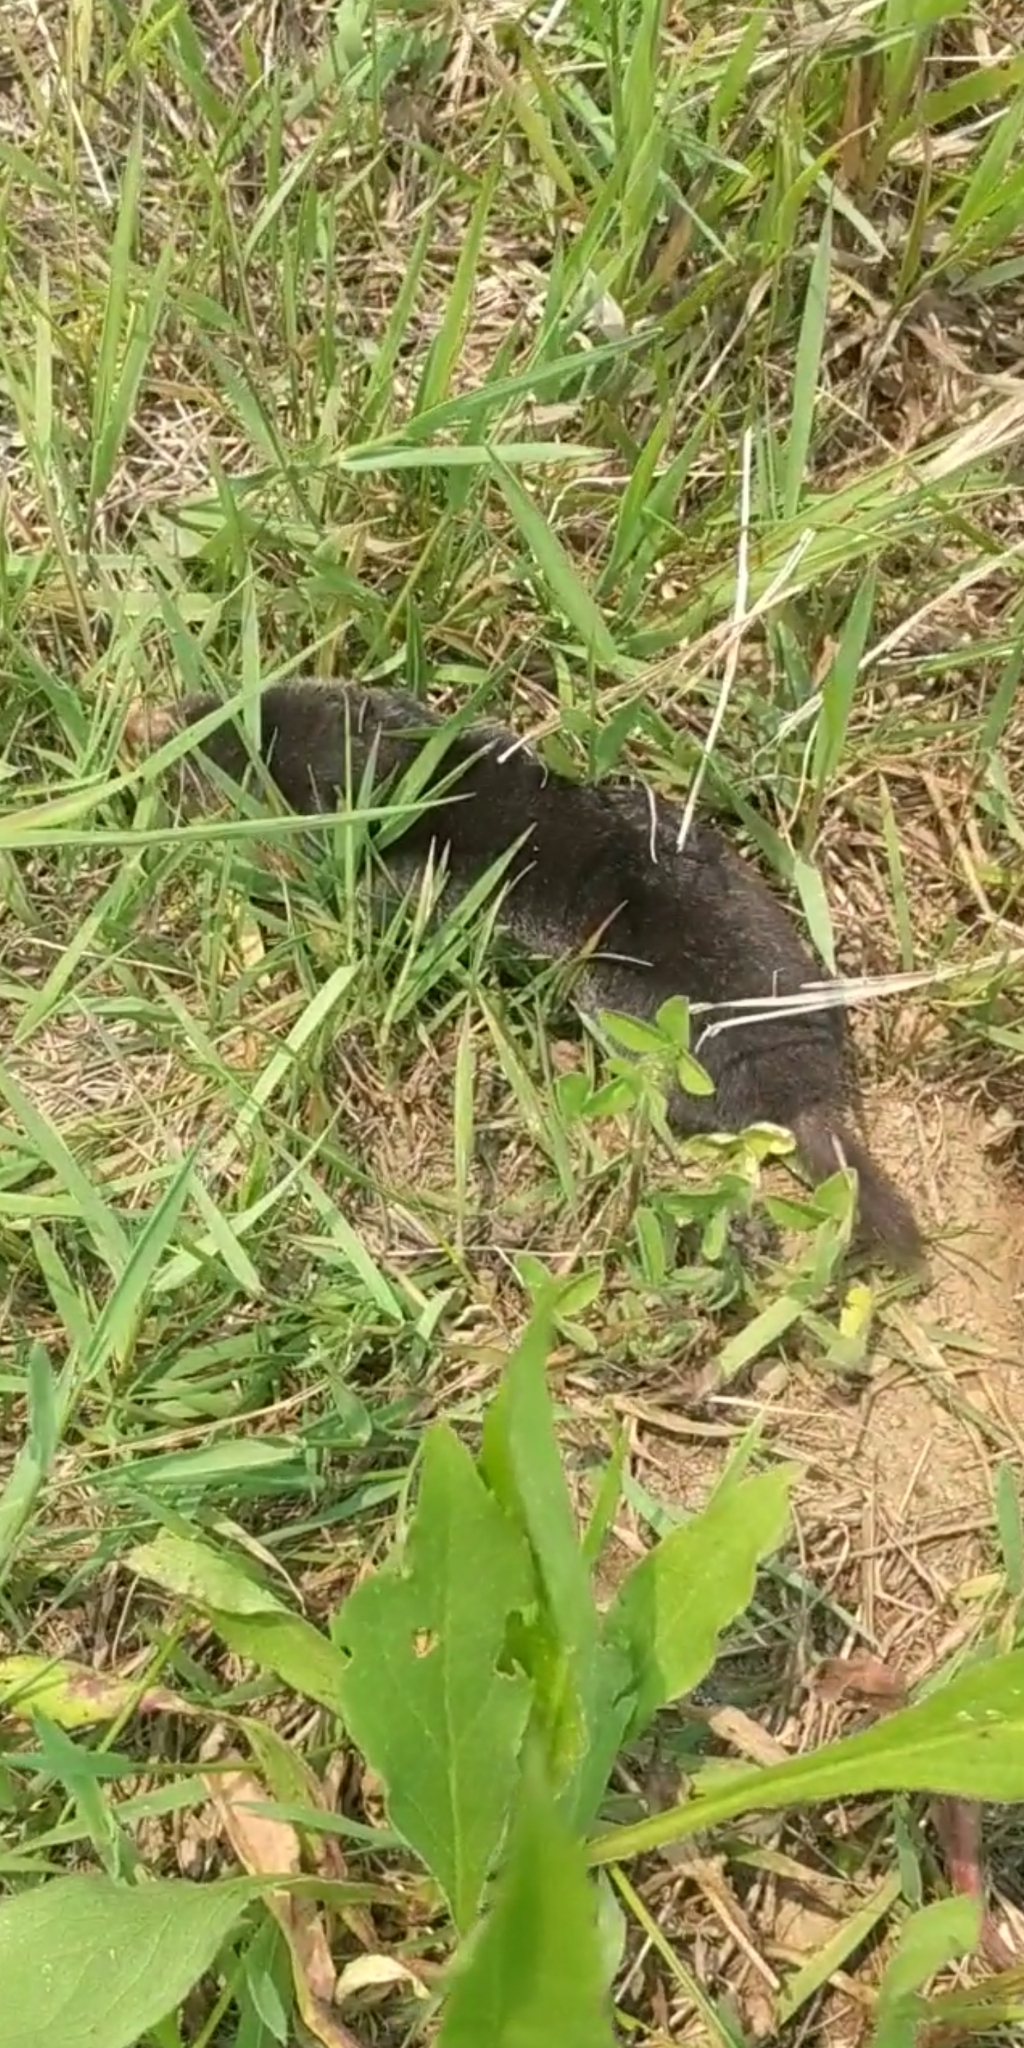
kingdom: Animalia
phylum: Chordata
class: Mammalia
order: Soricomorpha
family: Talpidae
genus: Parascalops
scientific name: Parascalops breweri
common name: Hairy-tailed mole
